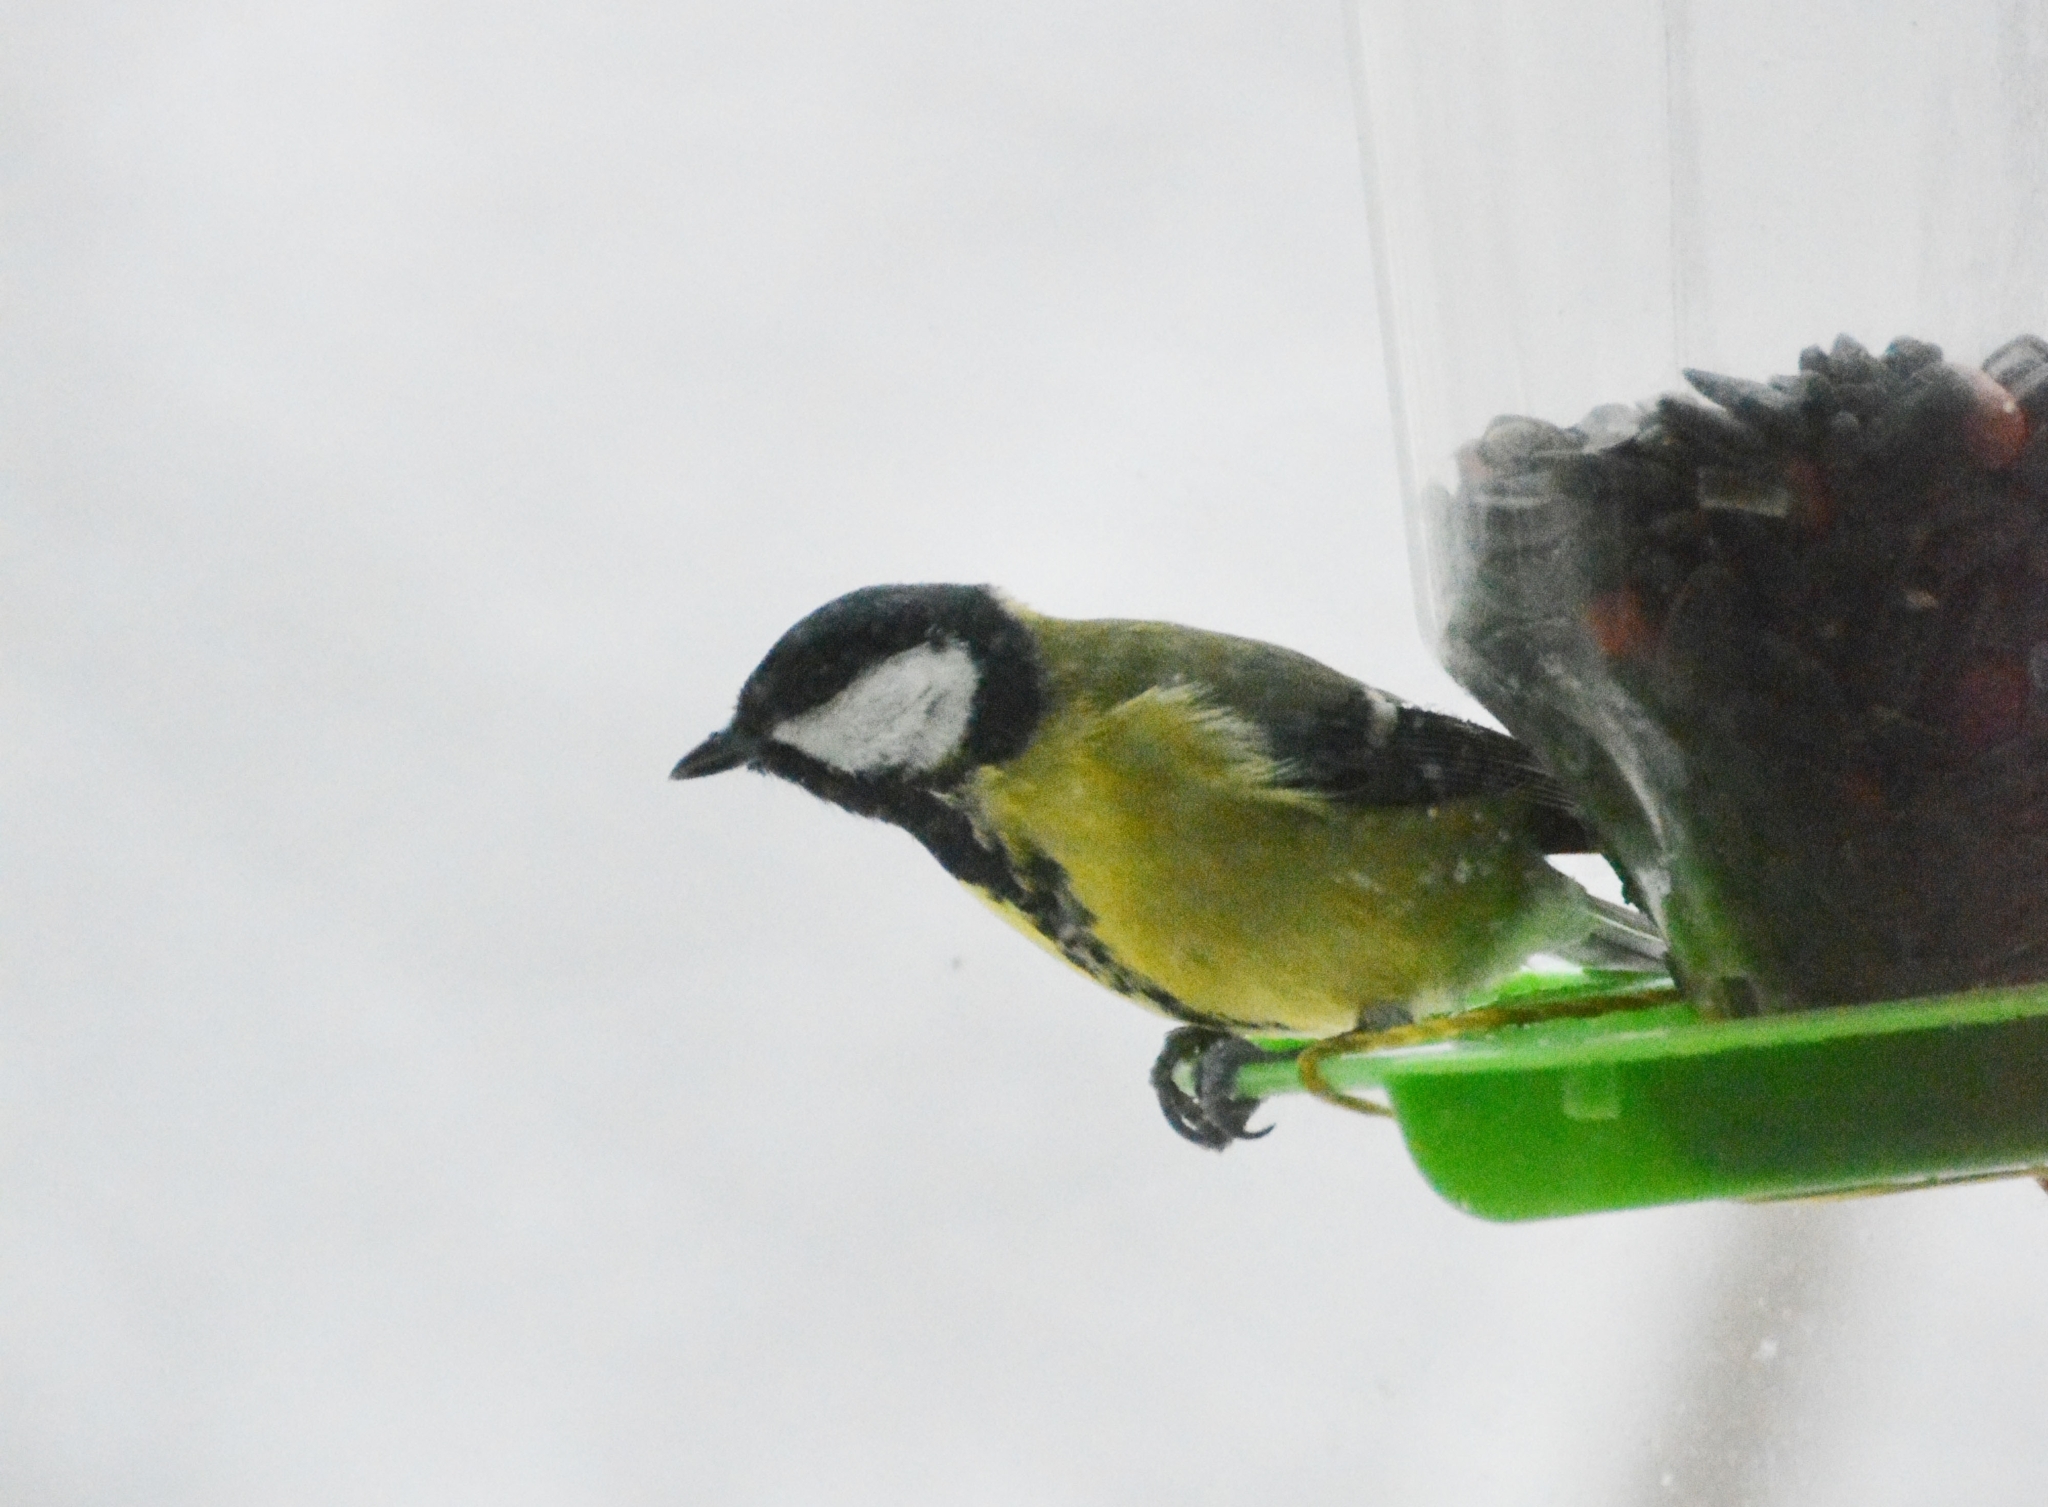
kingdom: Animalia
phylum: Chordata
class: Aves
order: Passeriformes
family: Paridae
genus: Parus
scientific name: Parus major
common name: Great tit
